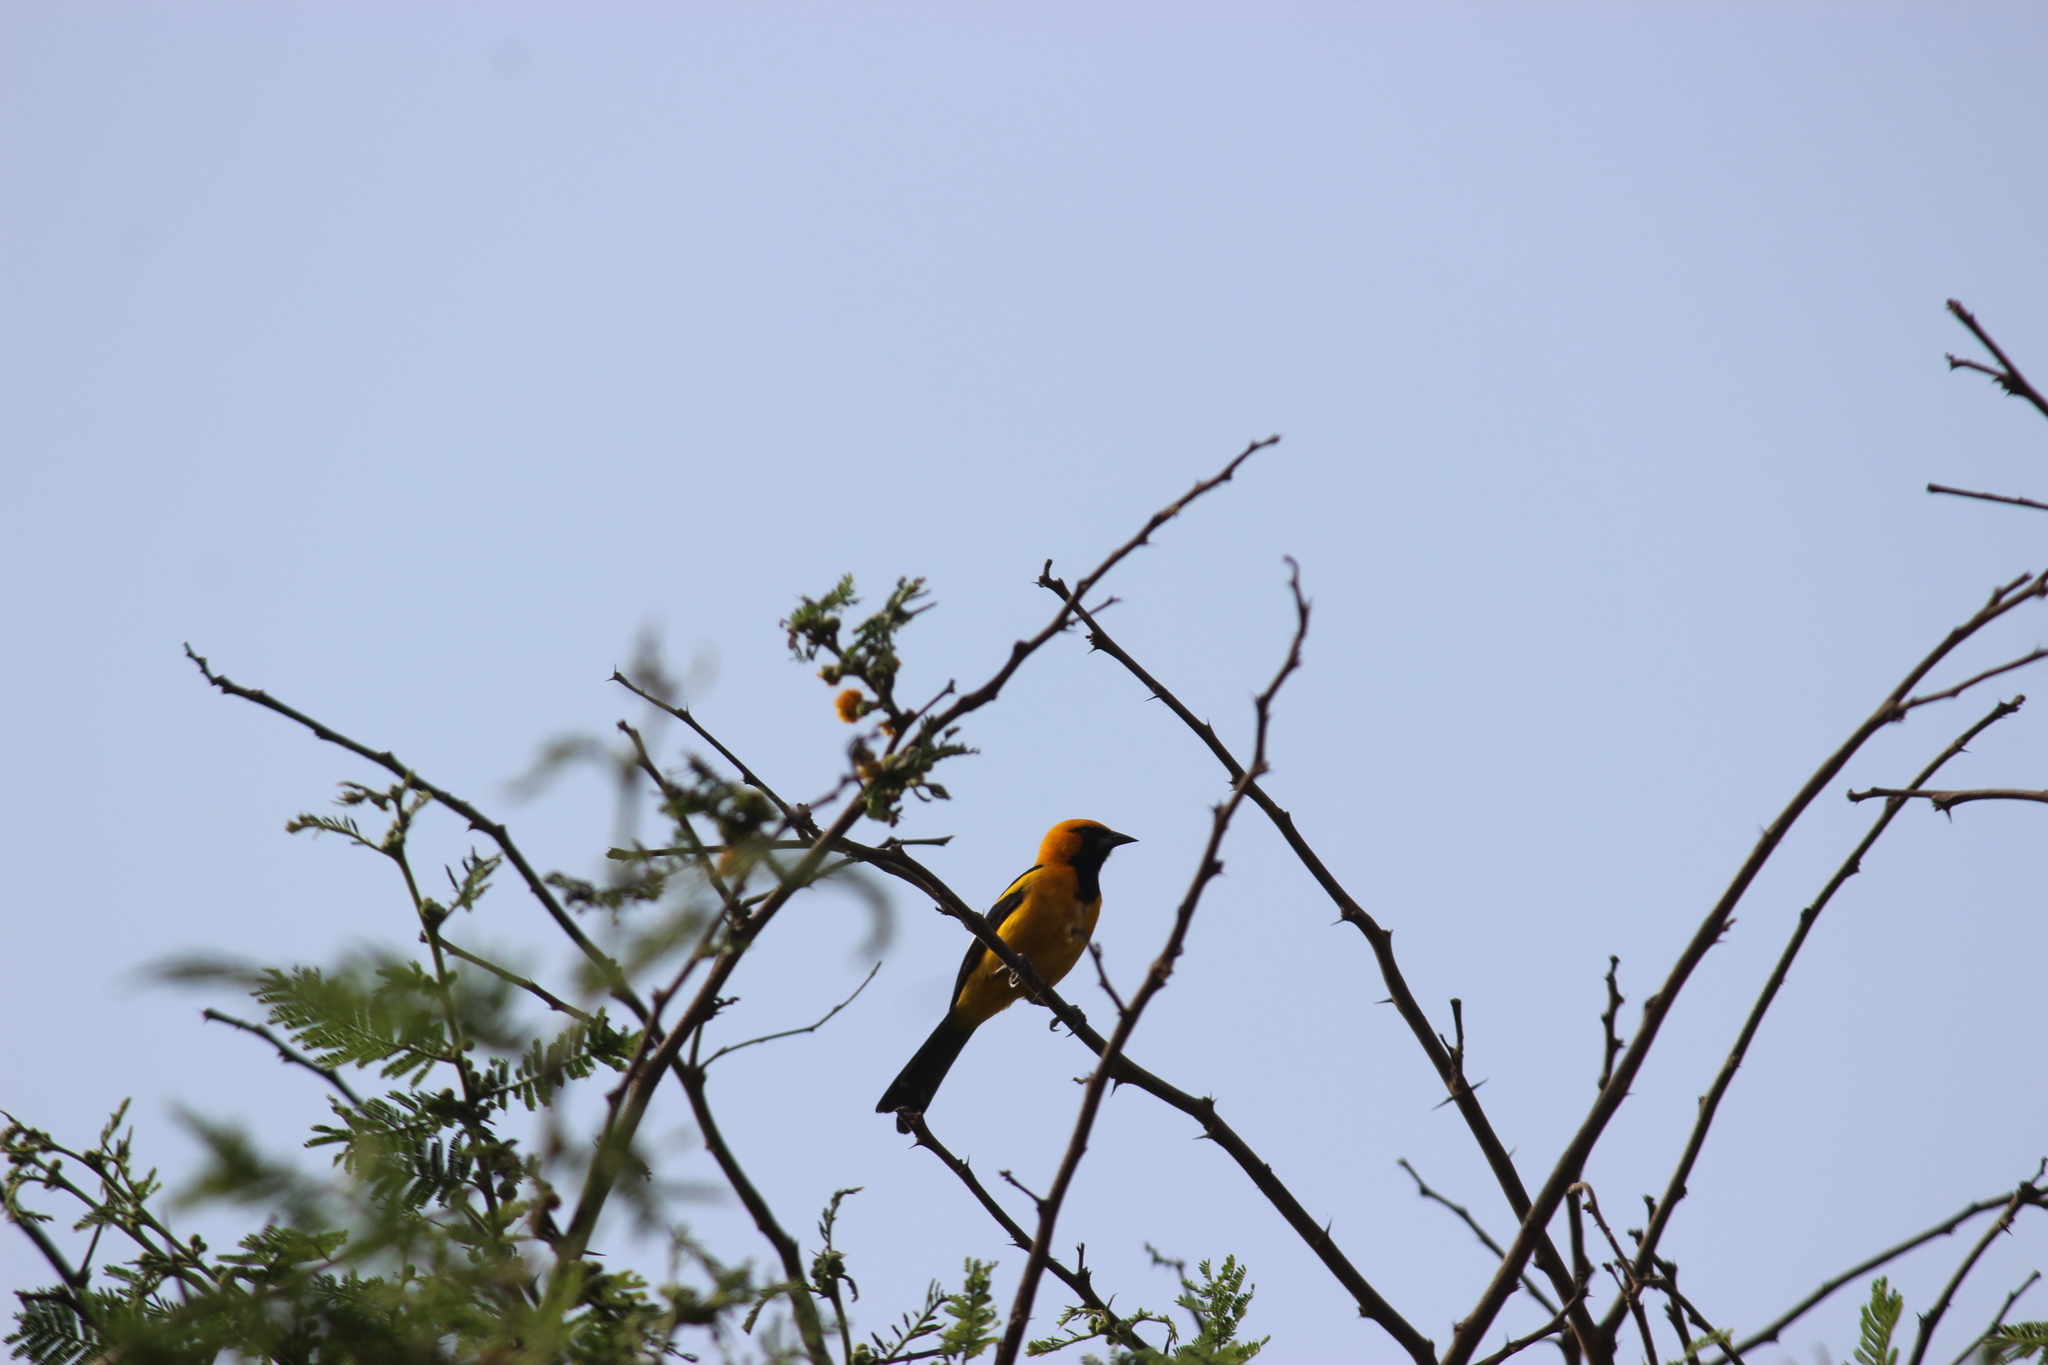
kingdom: Animalia
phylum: Chordata
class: Aves
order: Passeriformes
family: Icteridae
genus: Icterus
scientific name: Icterus graceannae
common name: White-edged oriole
